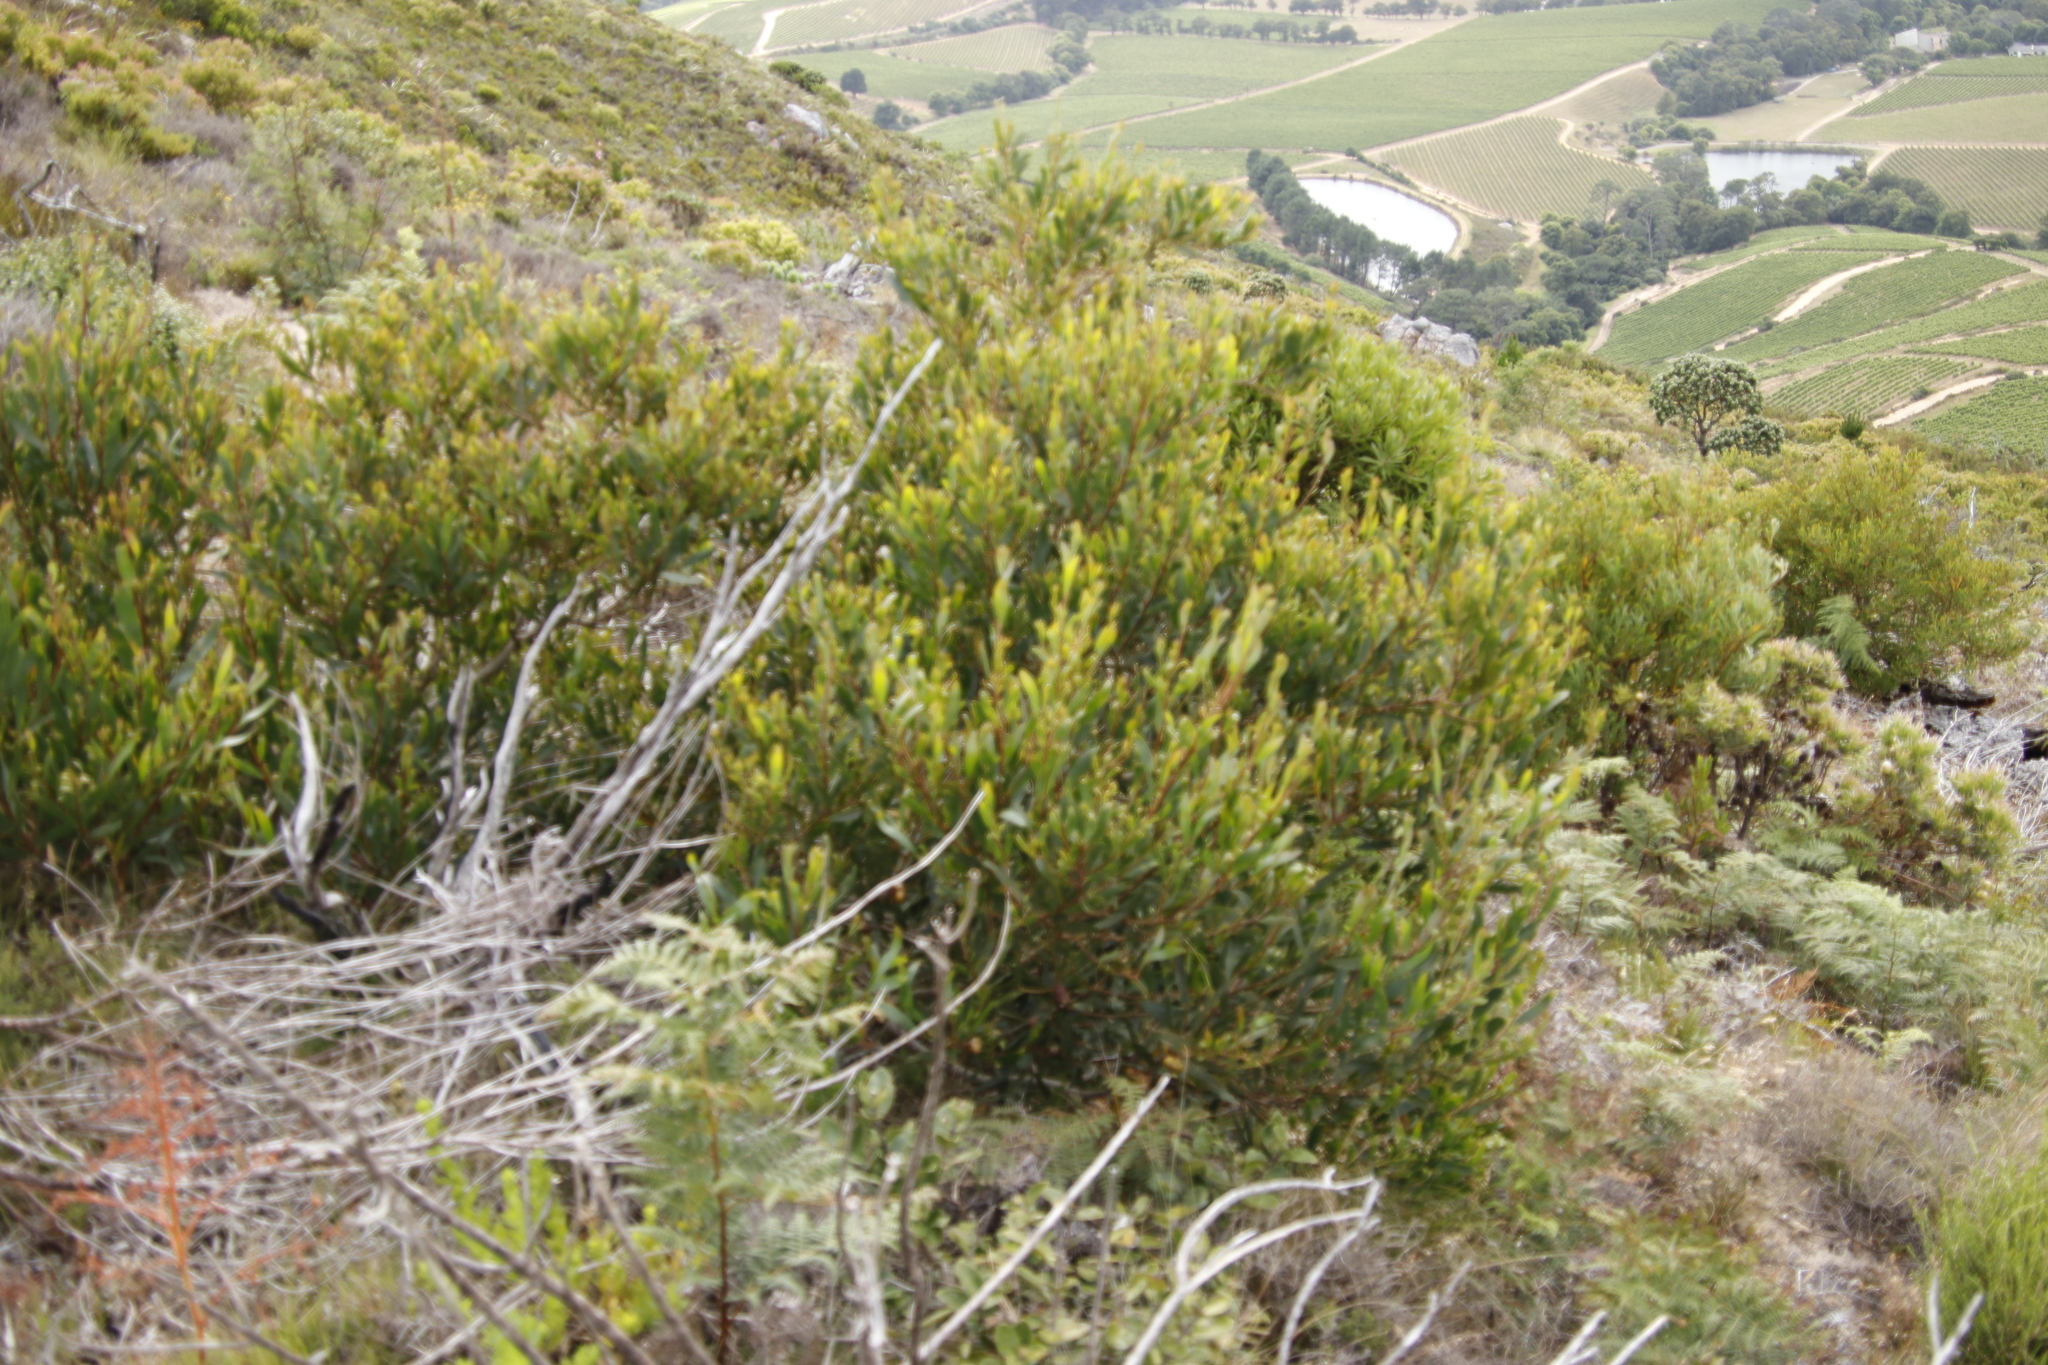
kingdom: Plantae
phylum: Tracheophyta
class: Magnoliopsida
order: Fabales
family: Fabaceae
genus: Acacia
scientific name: Acacia longifolia
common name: Sydney golden wattle
